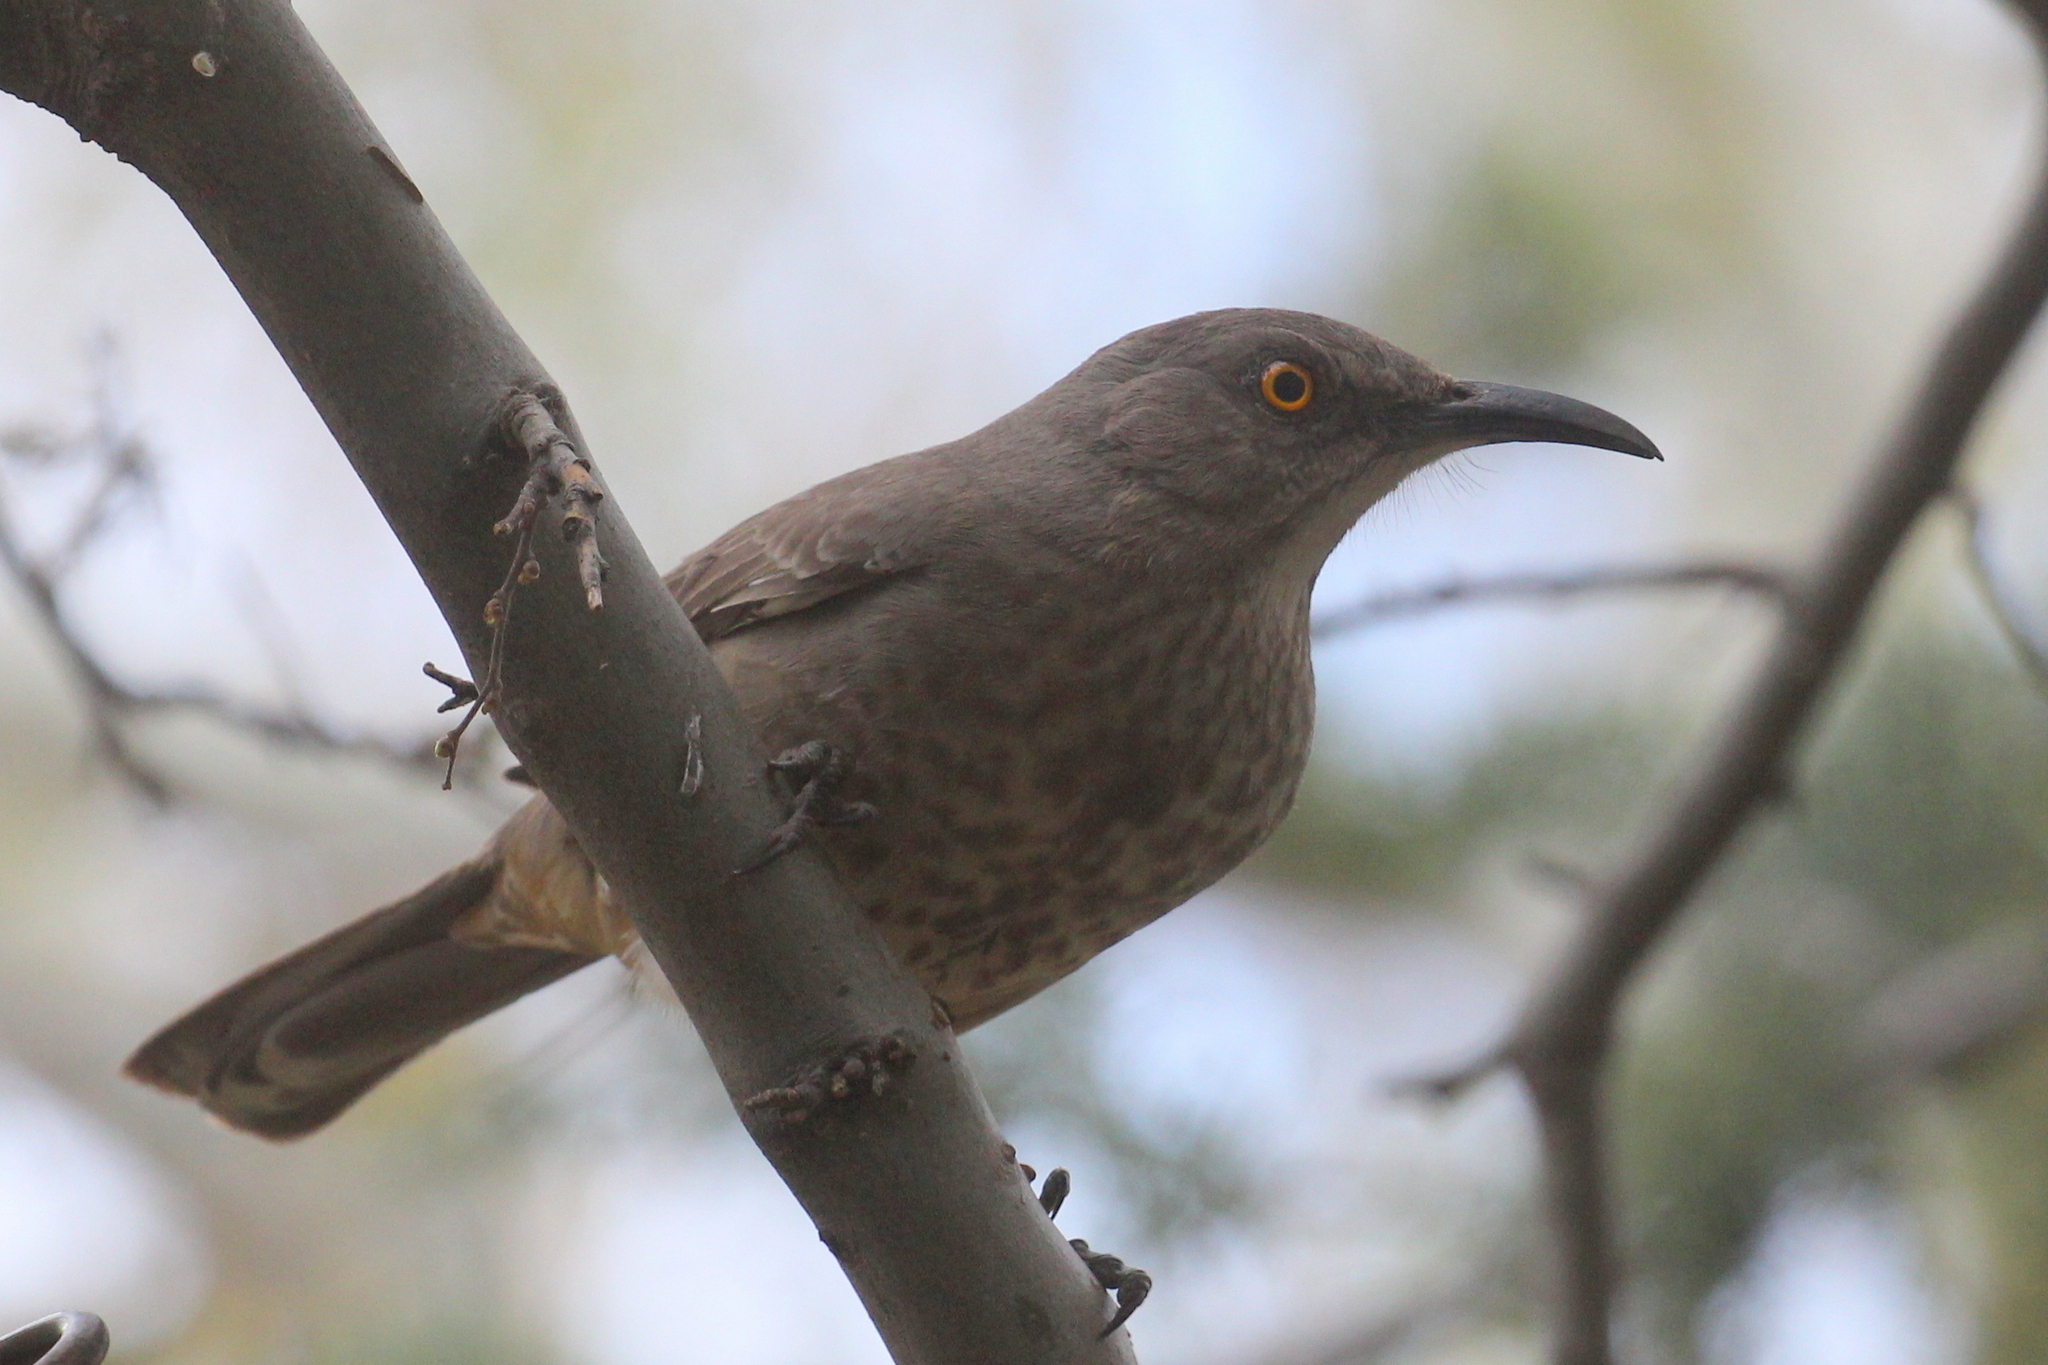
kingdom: Animalia
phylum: Chordata
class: Aves
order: Passeriformes
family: Mimidae
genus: Toxostoma
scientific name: Toxostoma curvirostre
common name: Curve-billed thrasher
